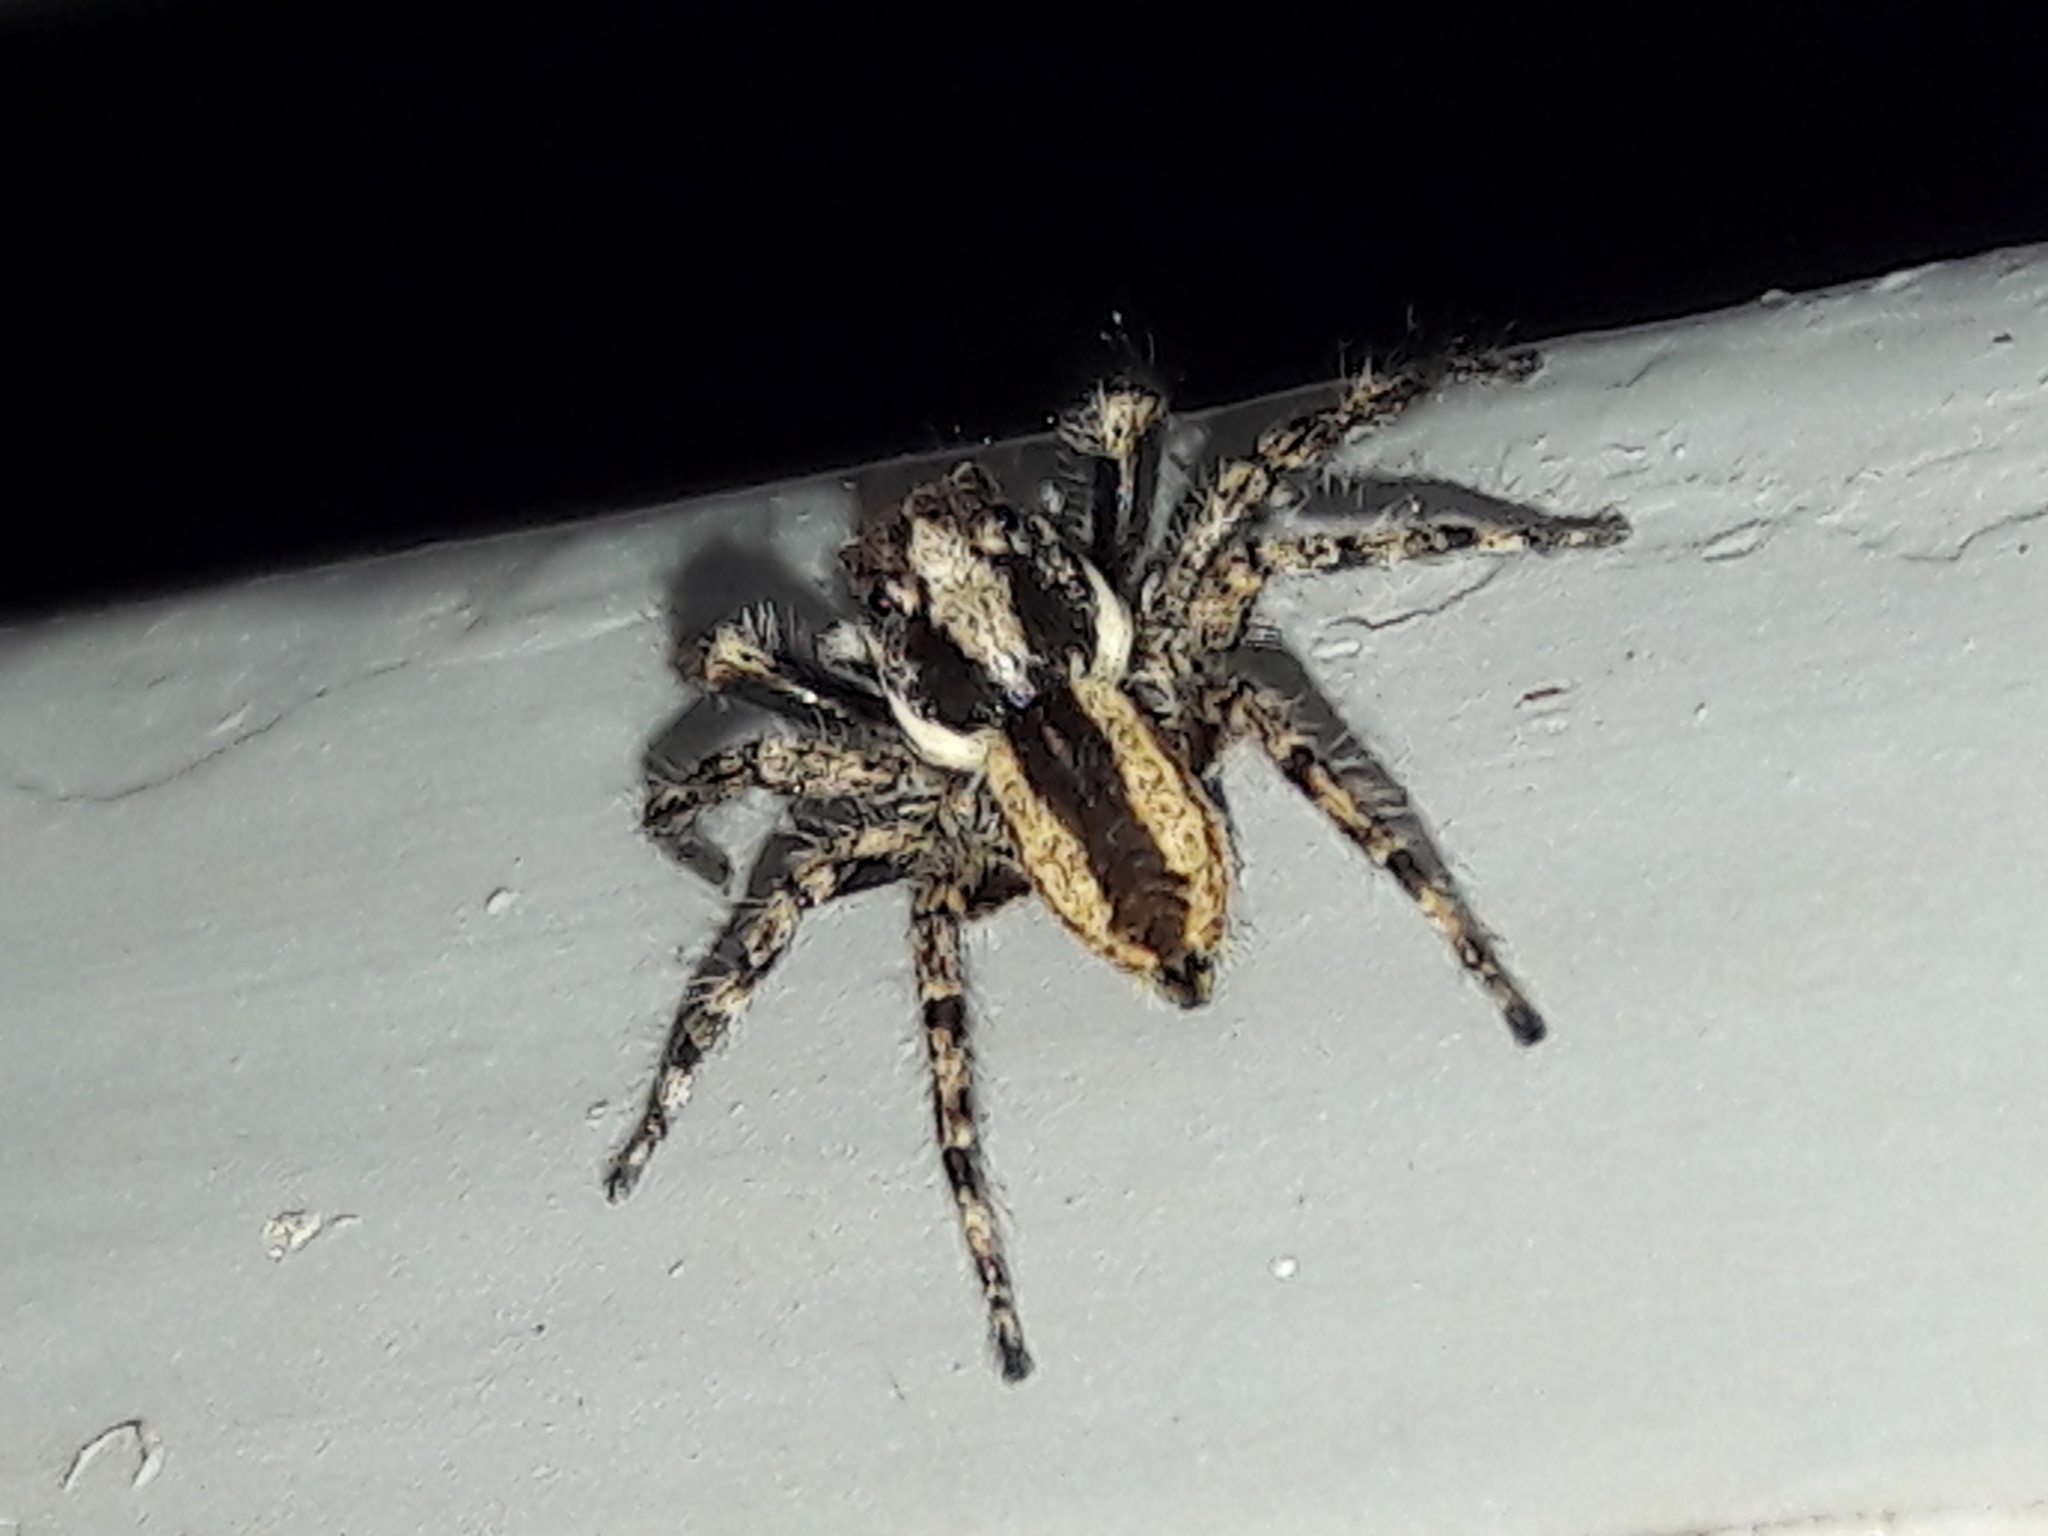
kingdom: Animalia
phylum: Arthropoda
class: Arachnida
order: Araneae
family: Salticidae
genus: Menemerus
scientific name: Menemerus bivittatus
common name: Gray wall jumper
